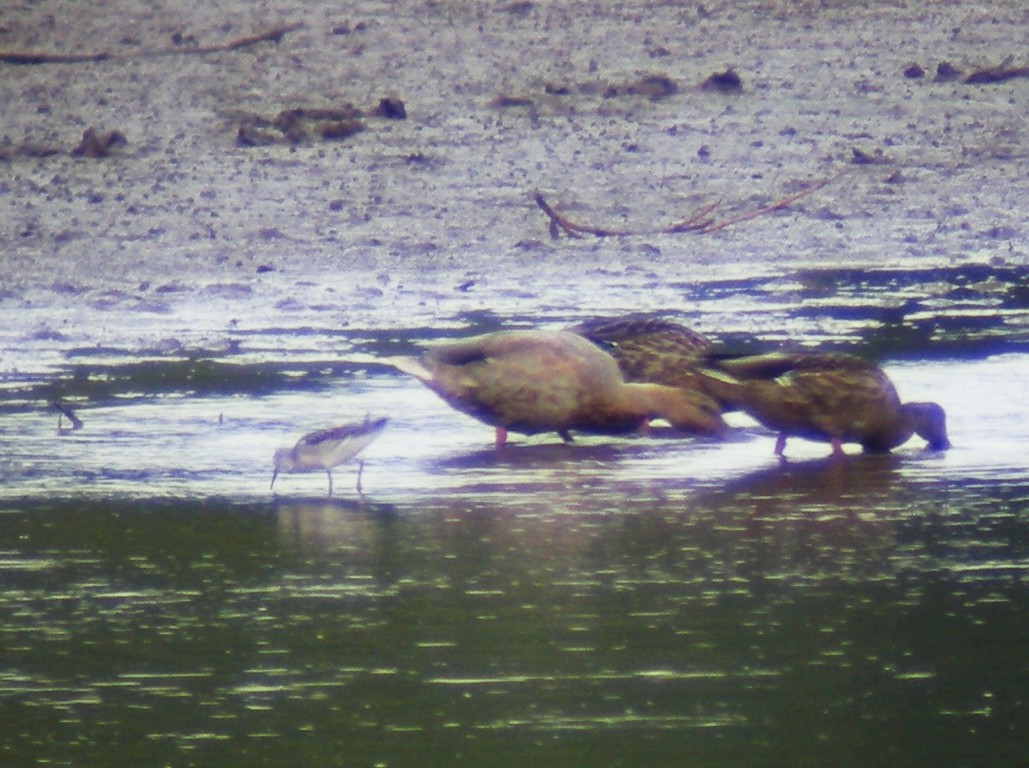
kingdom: Animalia
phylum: Chordata
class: Aves
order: Charadriiformes
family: Scolopacidae
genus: Phalaropus
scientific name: Phalaropus tricolor
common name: Wilson's phalarope
